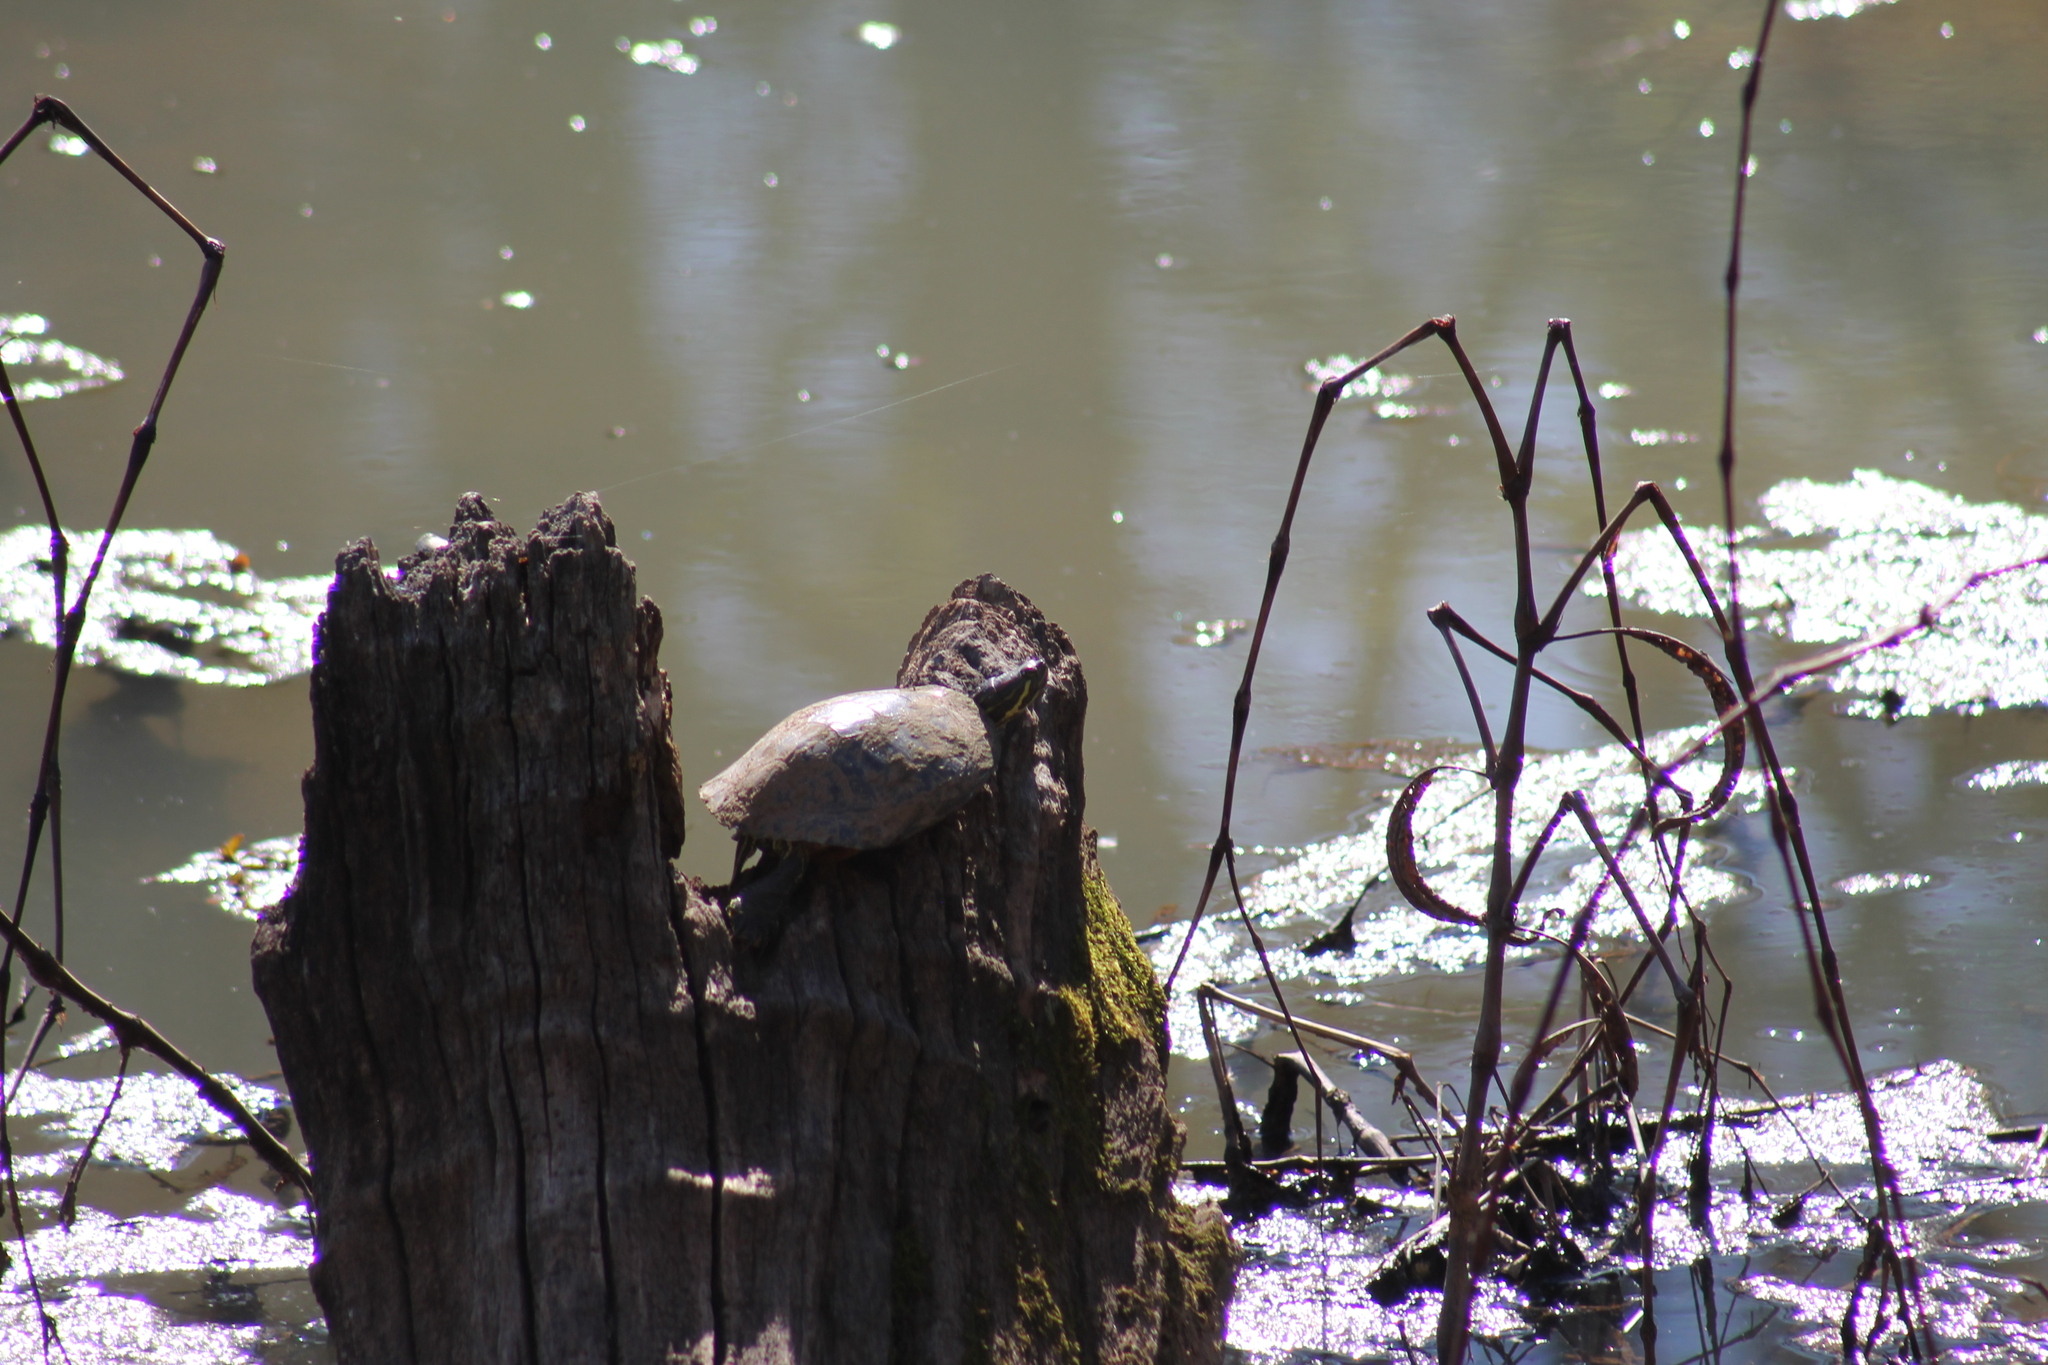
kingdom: Animalia
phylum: Chordata
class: Testudines
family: Emydidae
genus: Trachemys
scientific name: Trachemys scripta
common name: Slider
